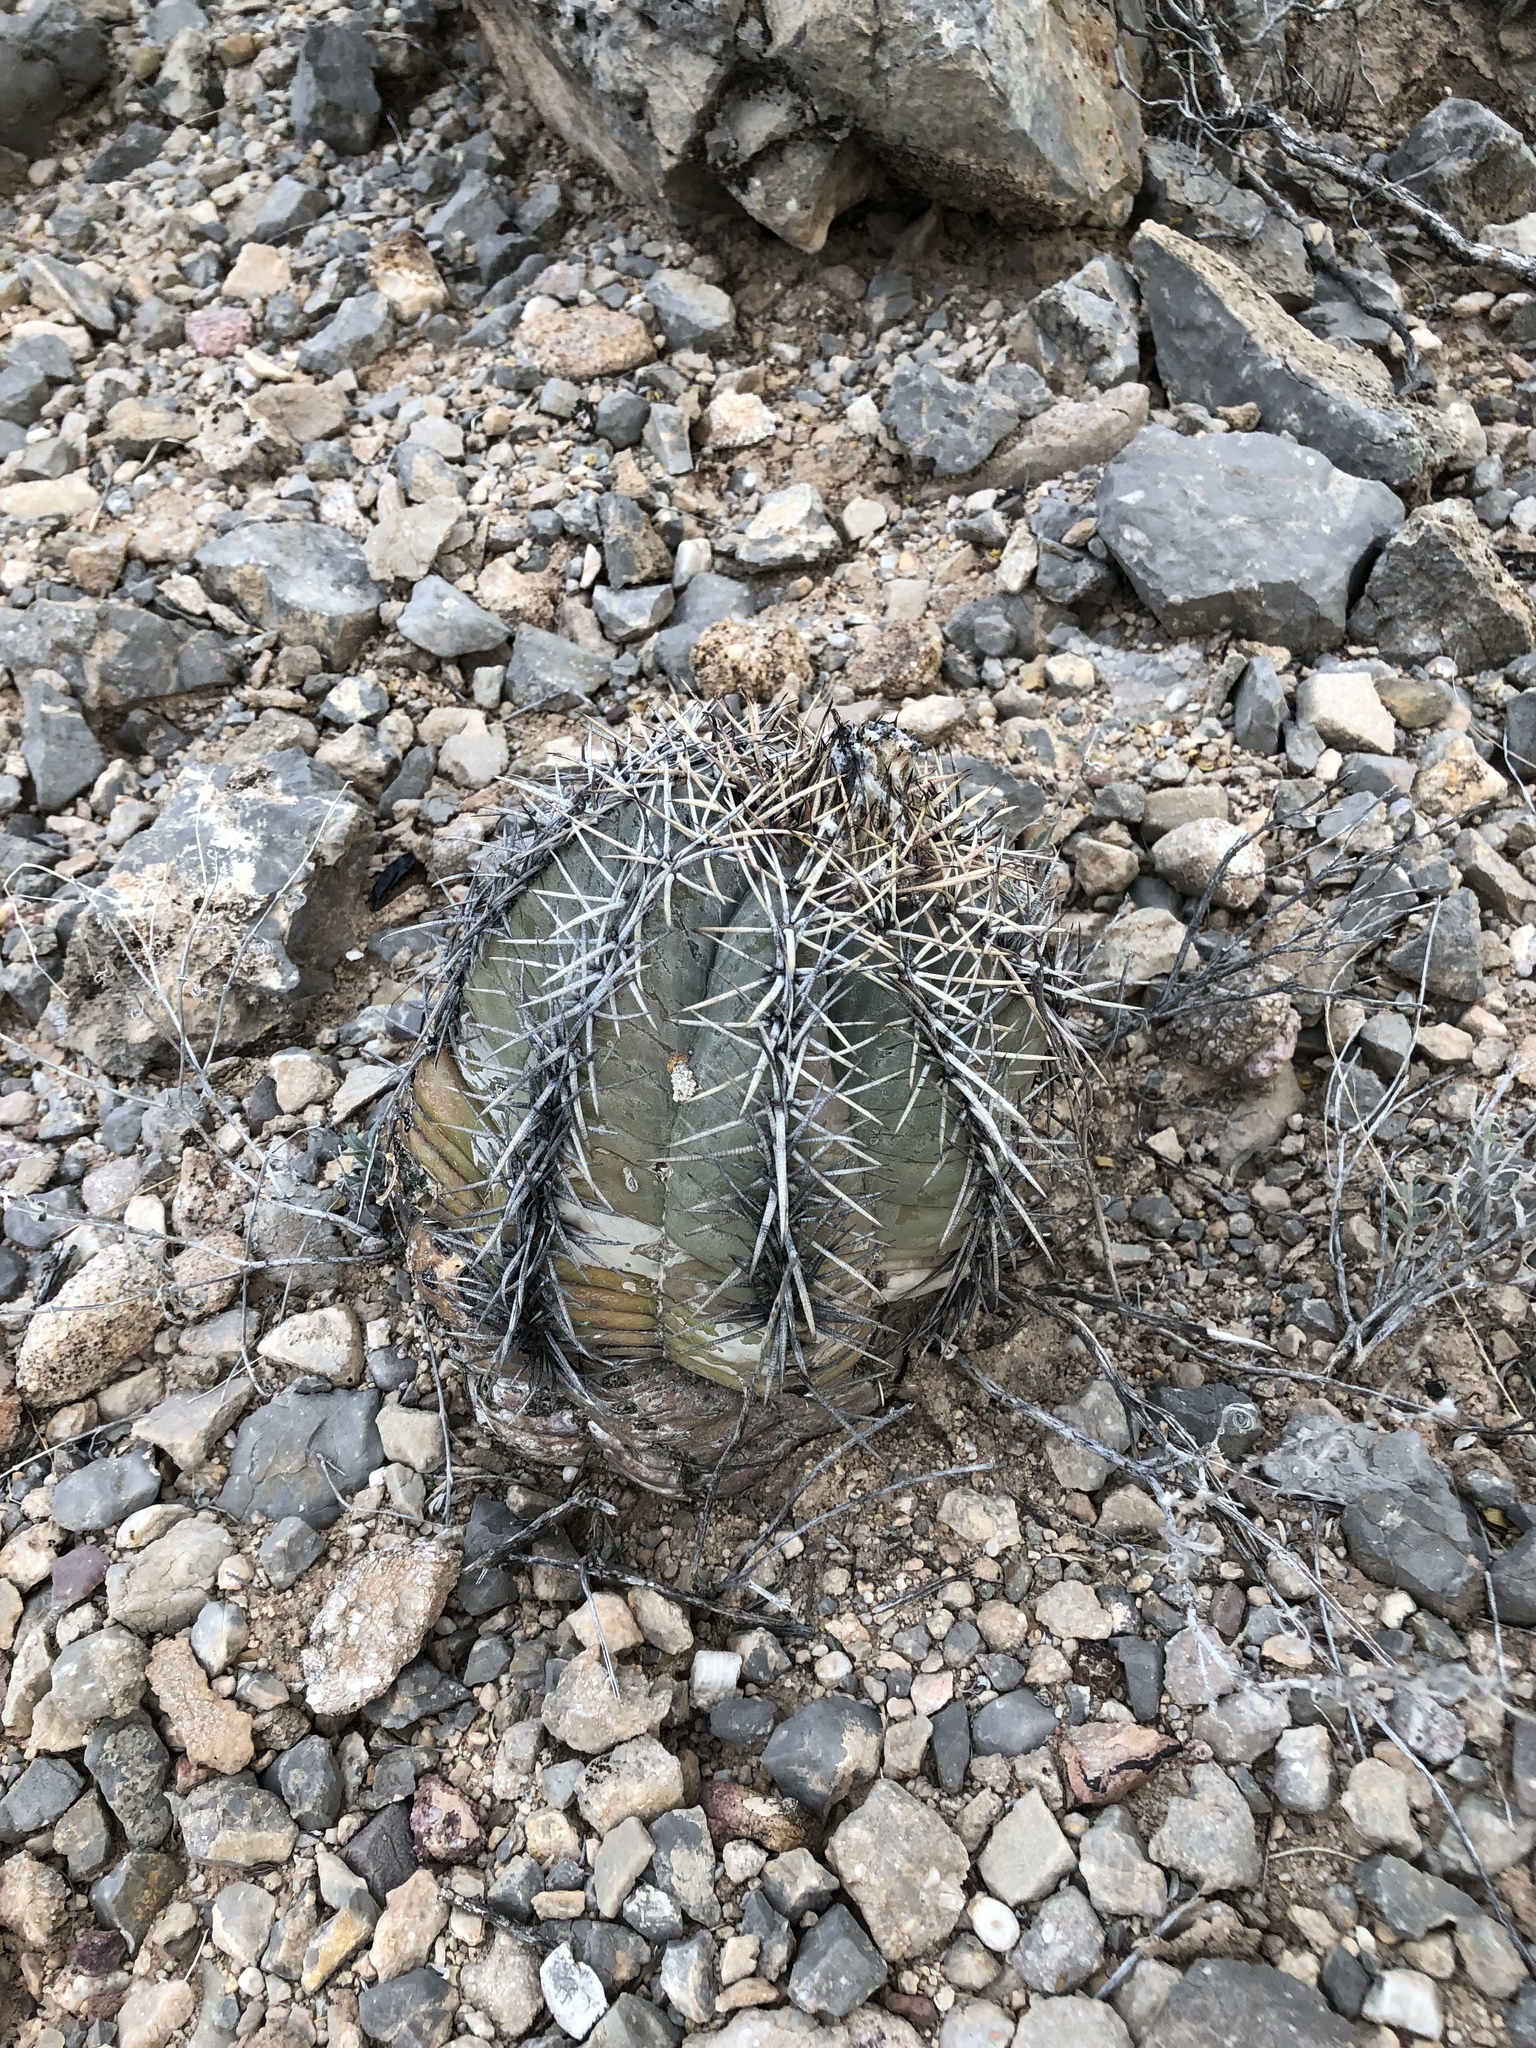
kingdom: Plantae
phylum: Tracheophyta
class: Magnoliopsida
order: Caryophyllales
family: Cactaceae
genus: Echinocactus
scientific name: Echinocactus horizonthalonius
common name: Devilshead
